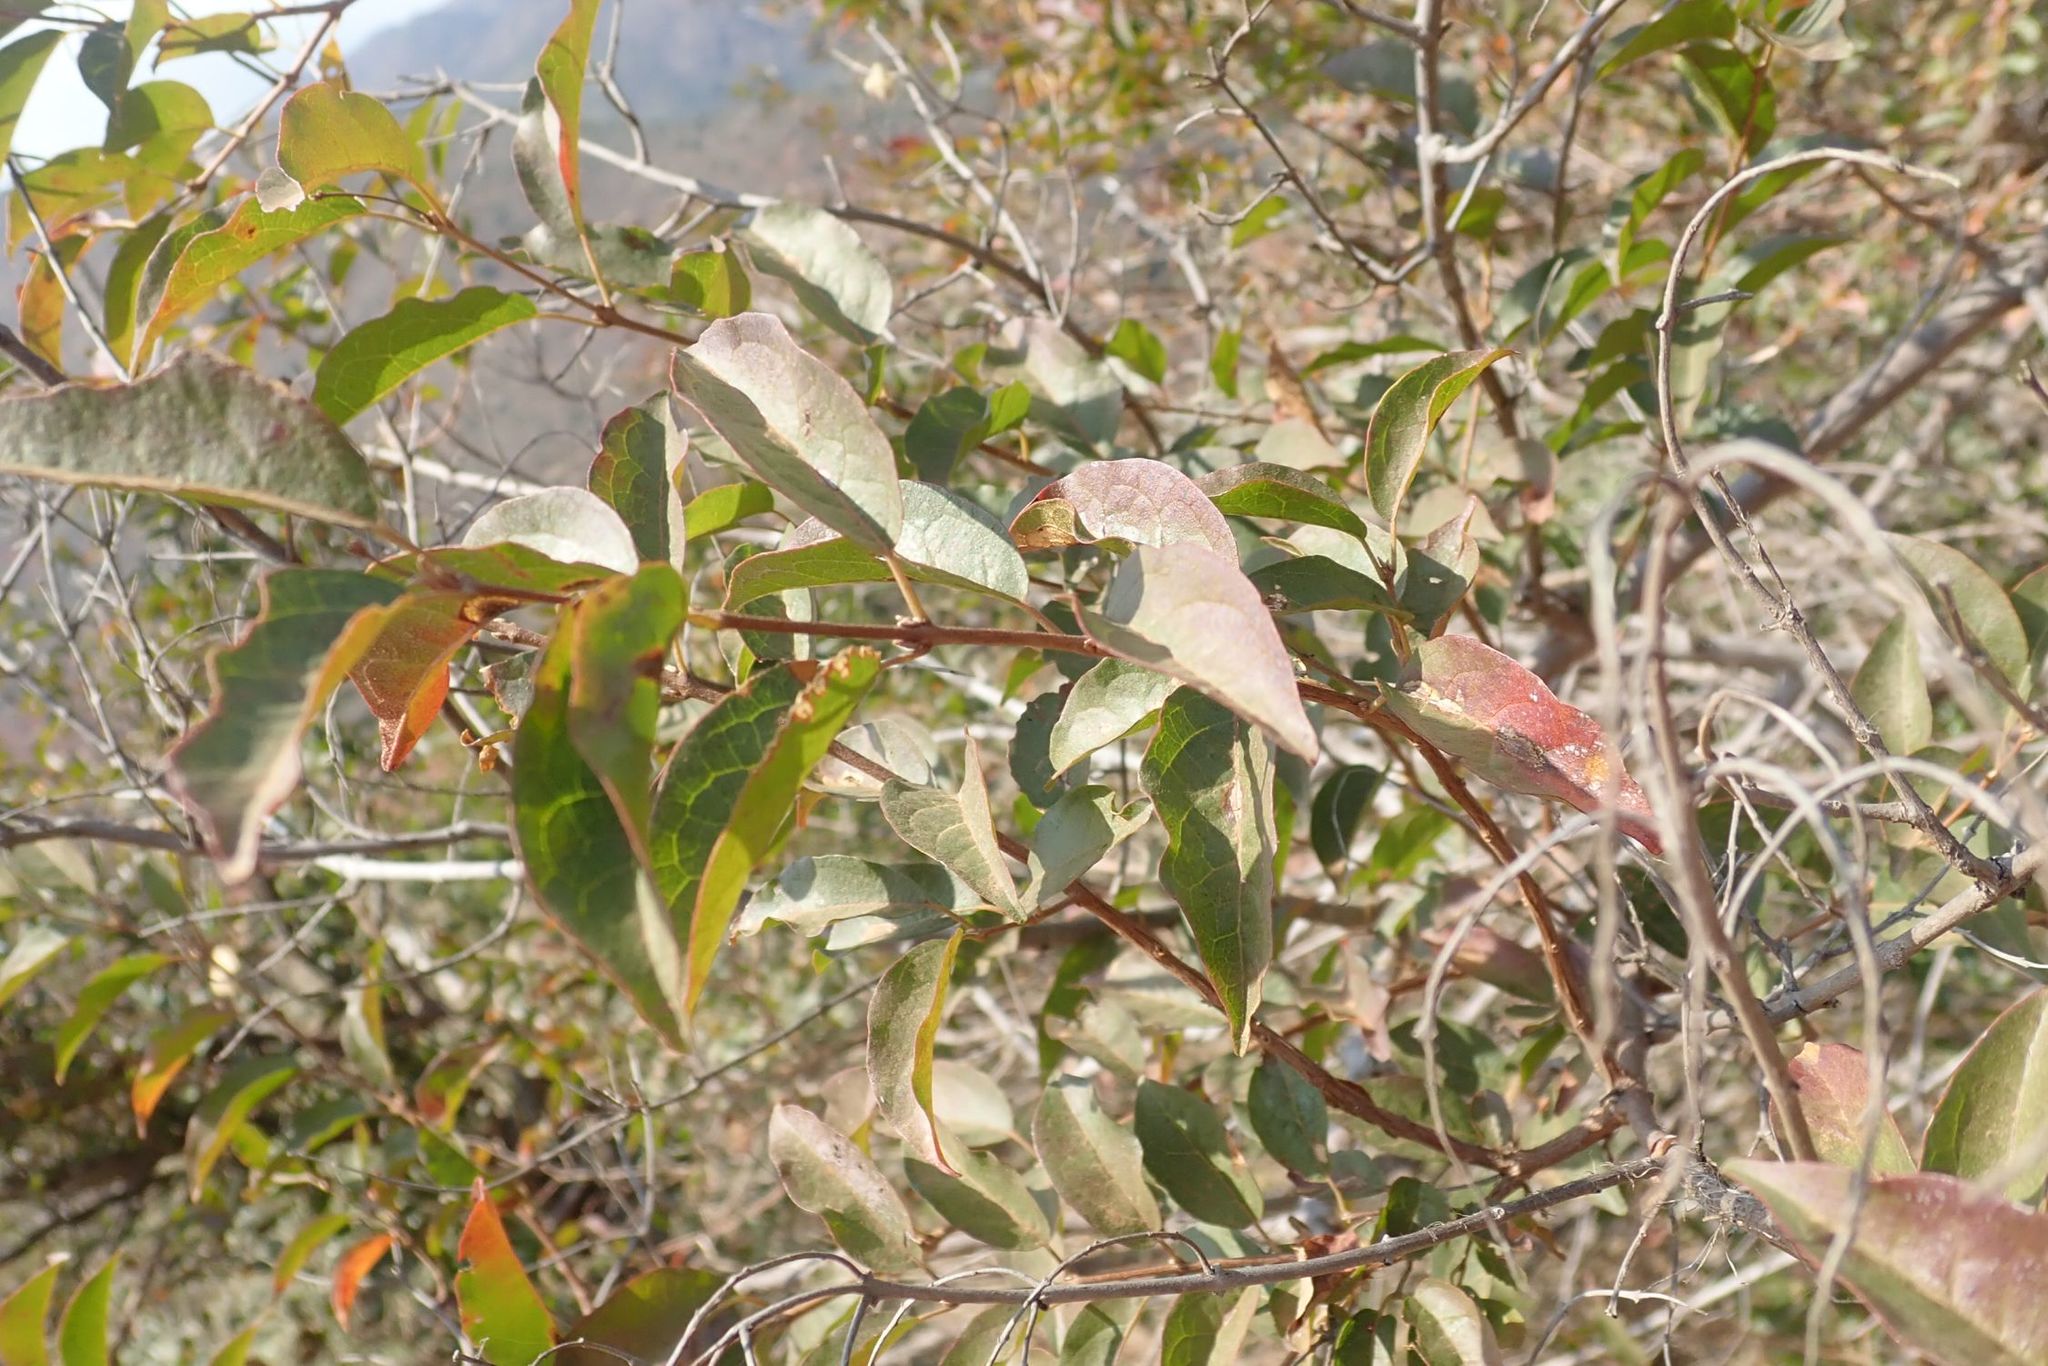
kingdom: Plantae
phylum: Tracheophyta
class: Magnoliopsida
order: Myrtales
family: Combretaceae
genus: Combretum
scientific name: Combretum padoides
